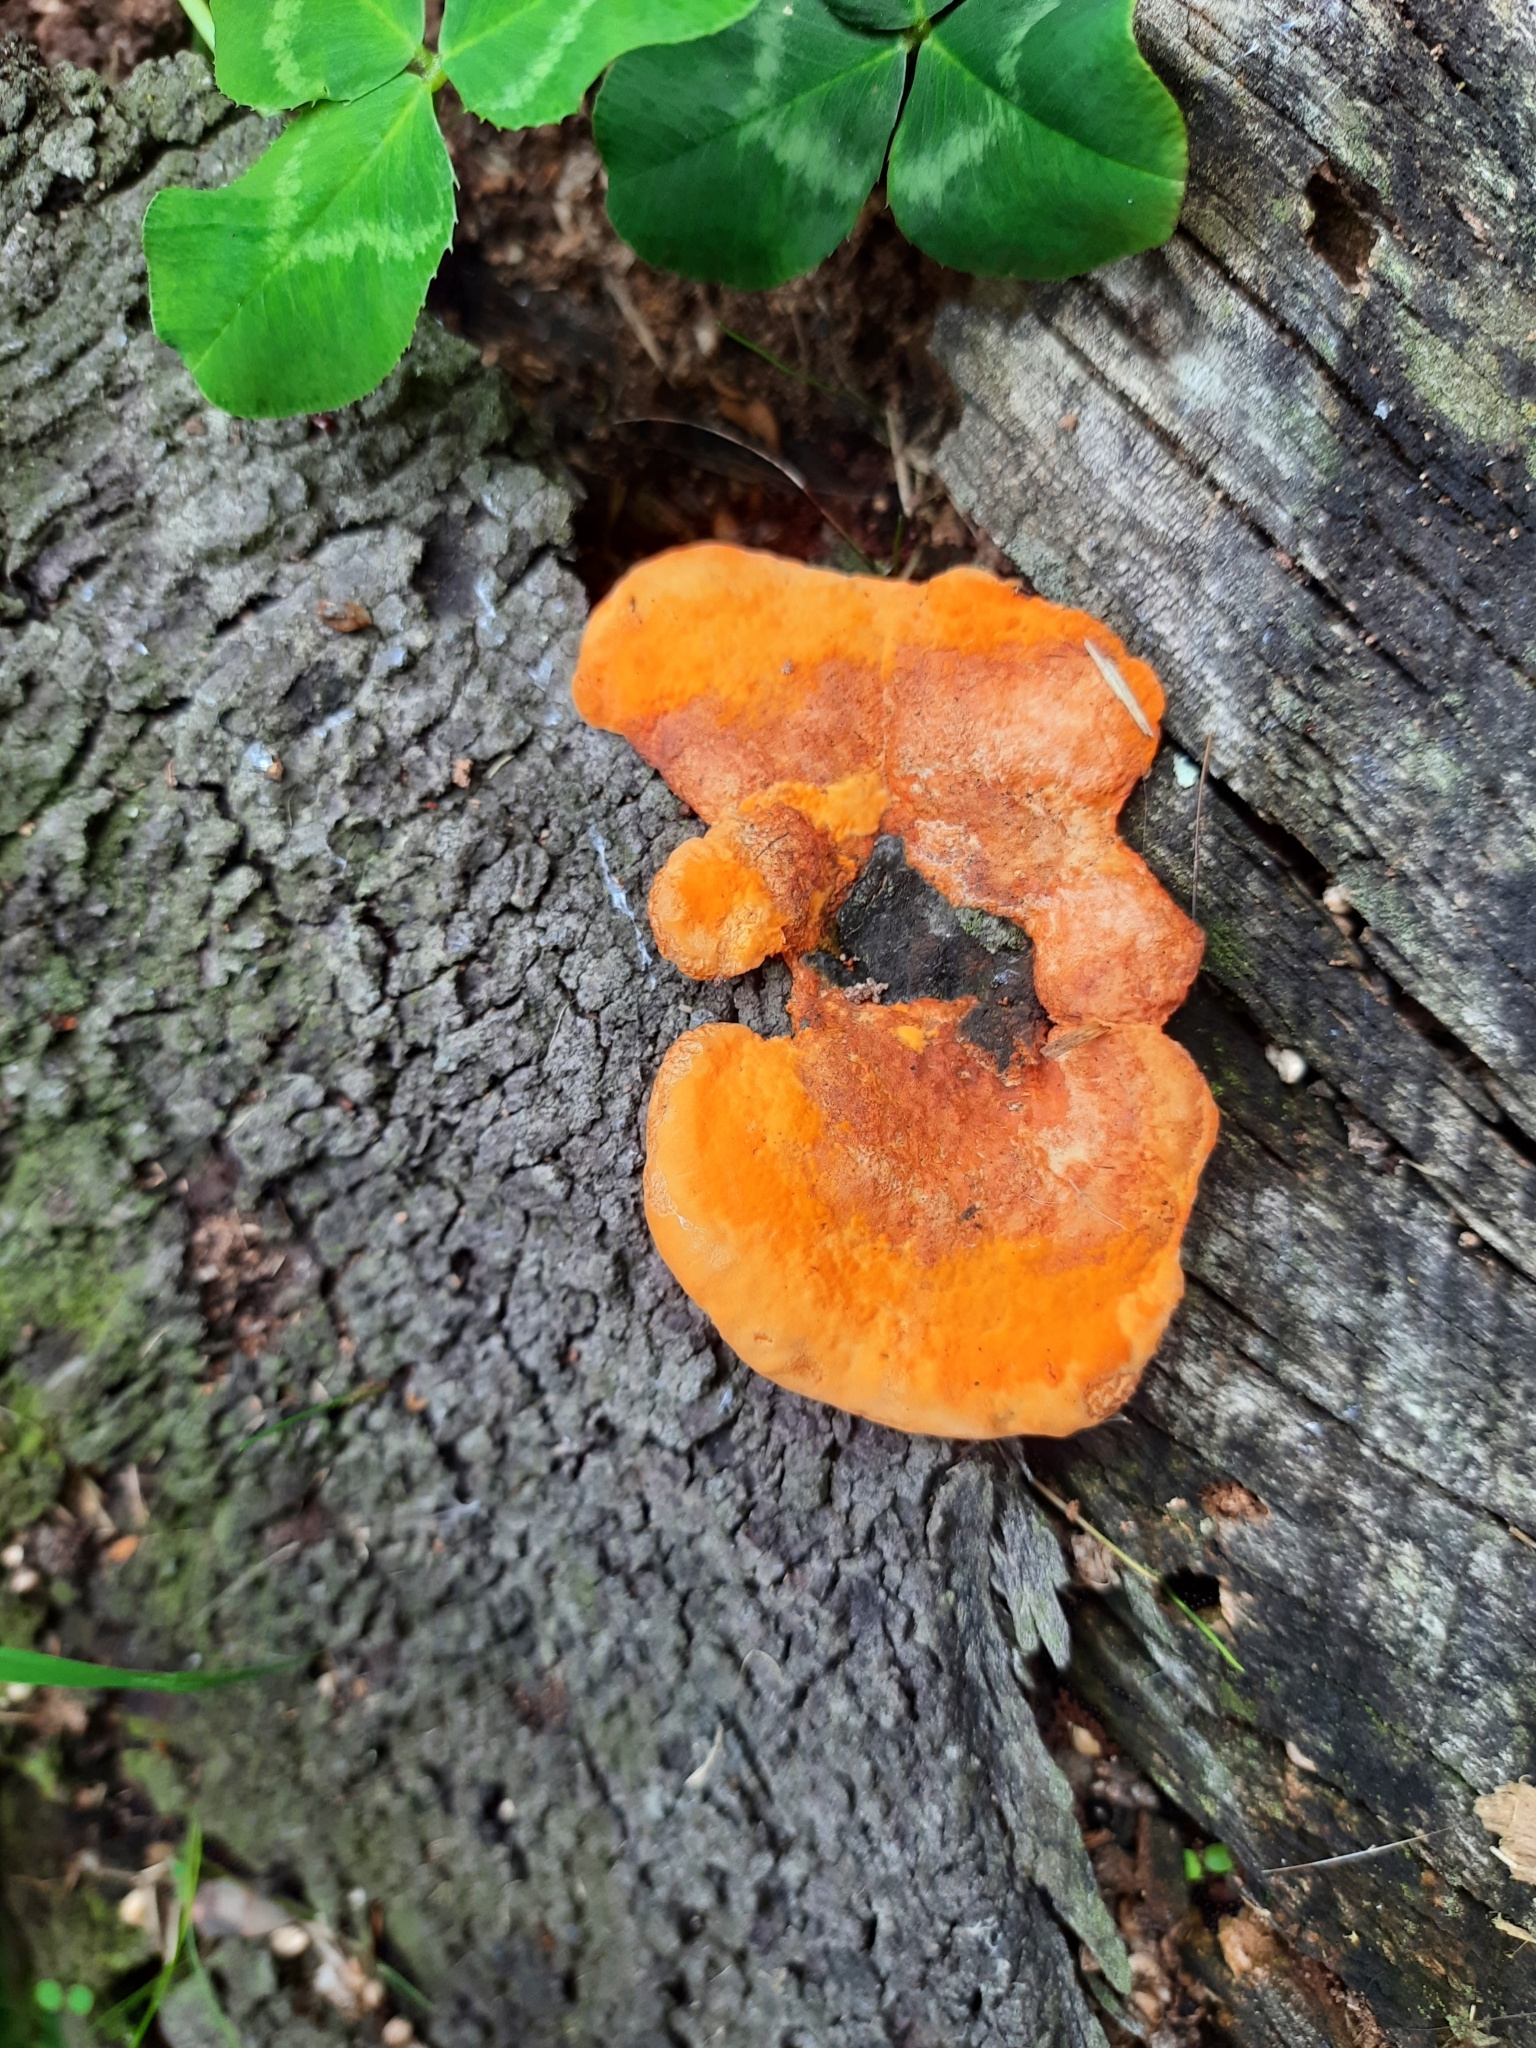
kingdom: Fungi
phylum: Basidiomycota
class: Agaricomycetes
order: Polyporales
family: Polyporaceae
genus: Trametes
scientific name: Trametes coccinea
